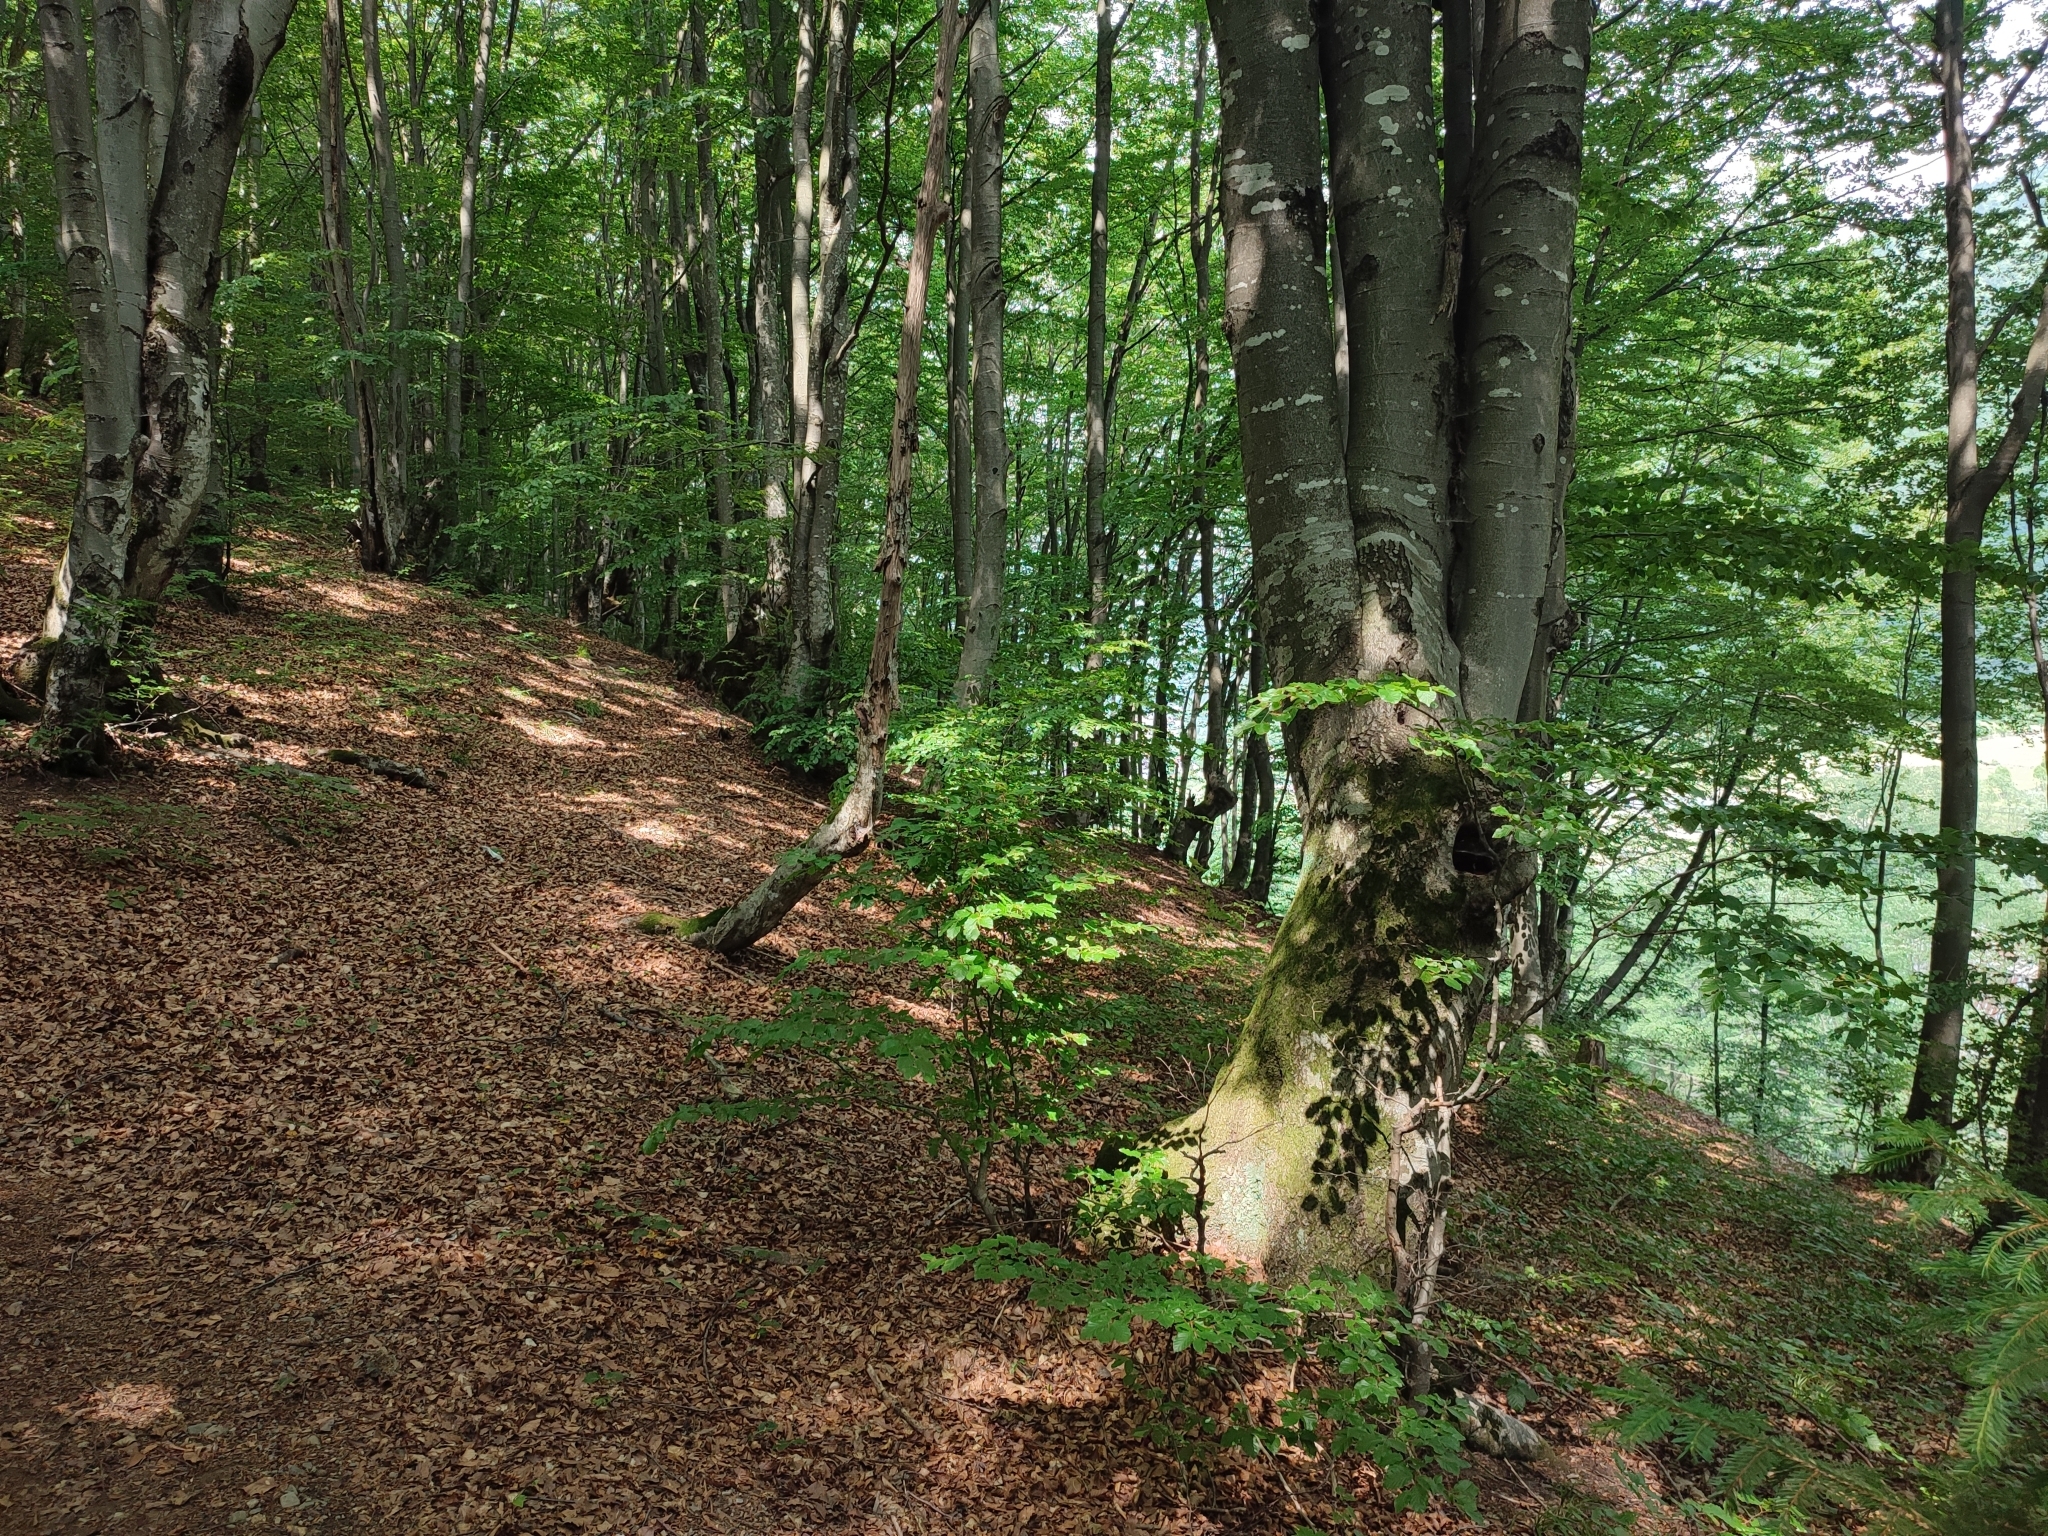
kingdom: Plantae
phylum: Tracheophyta
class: Magnoliopsida
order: Fagales
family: Fagaceae
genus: Fagus
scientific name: Fagus sylvatica
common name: Beech
